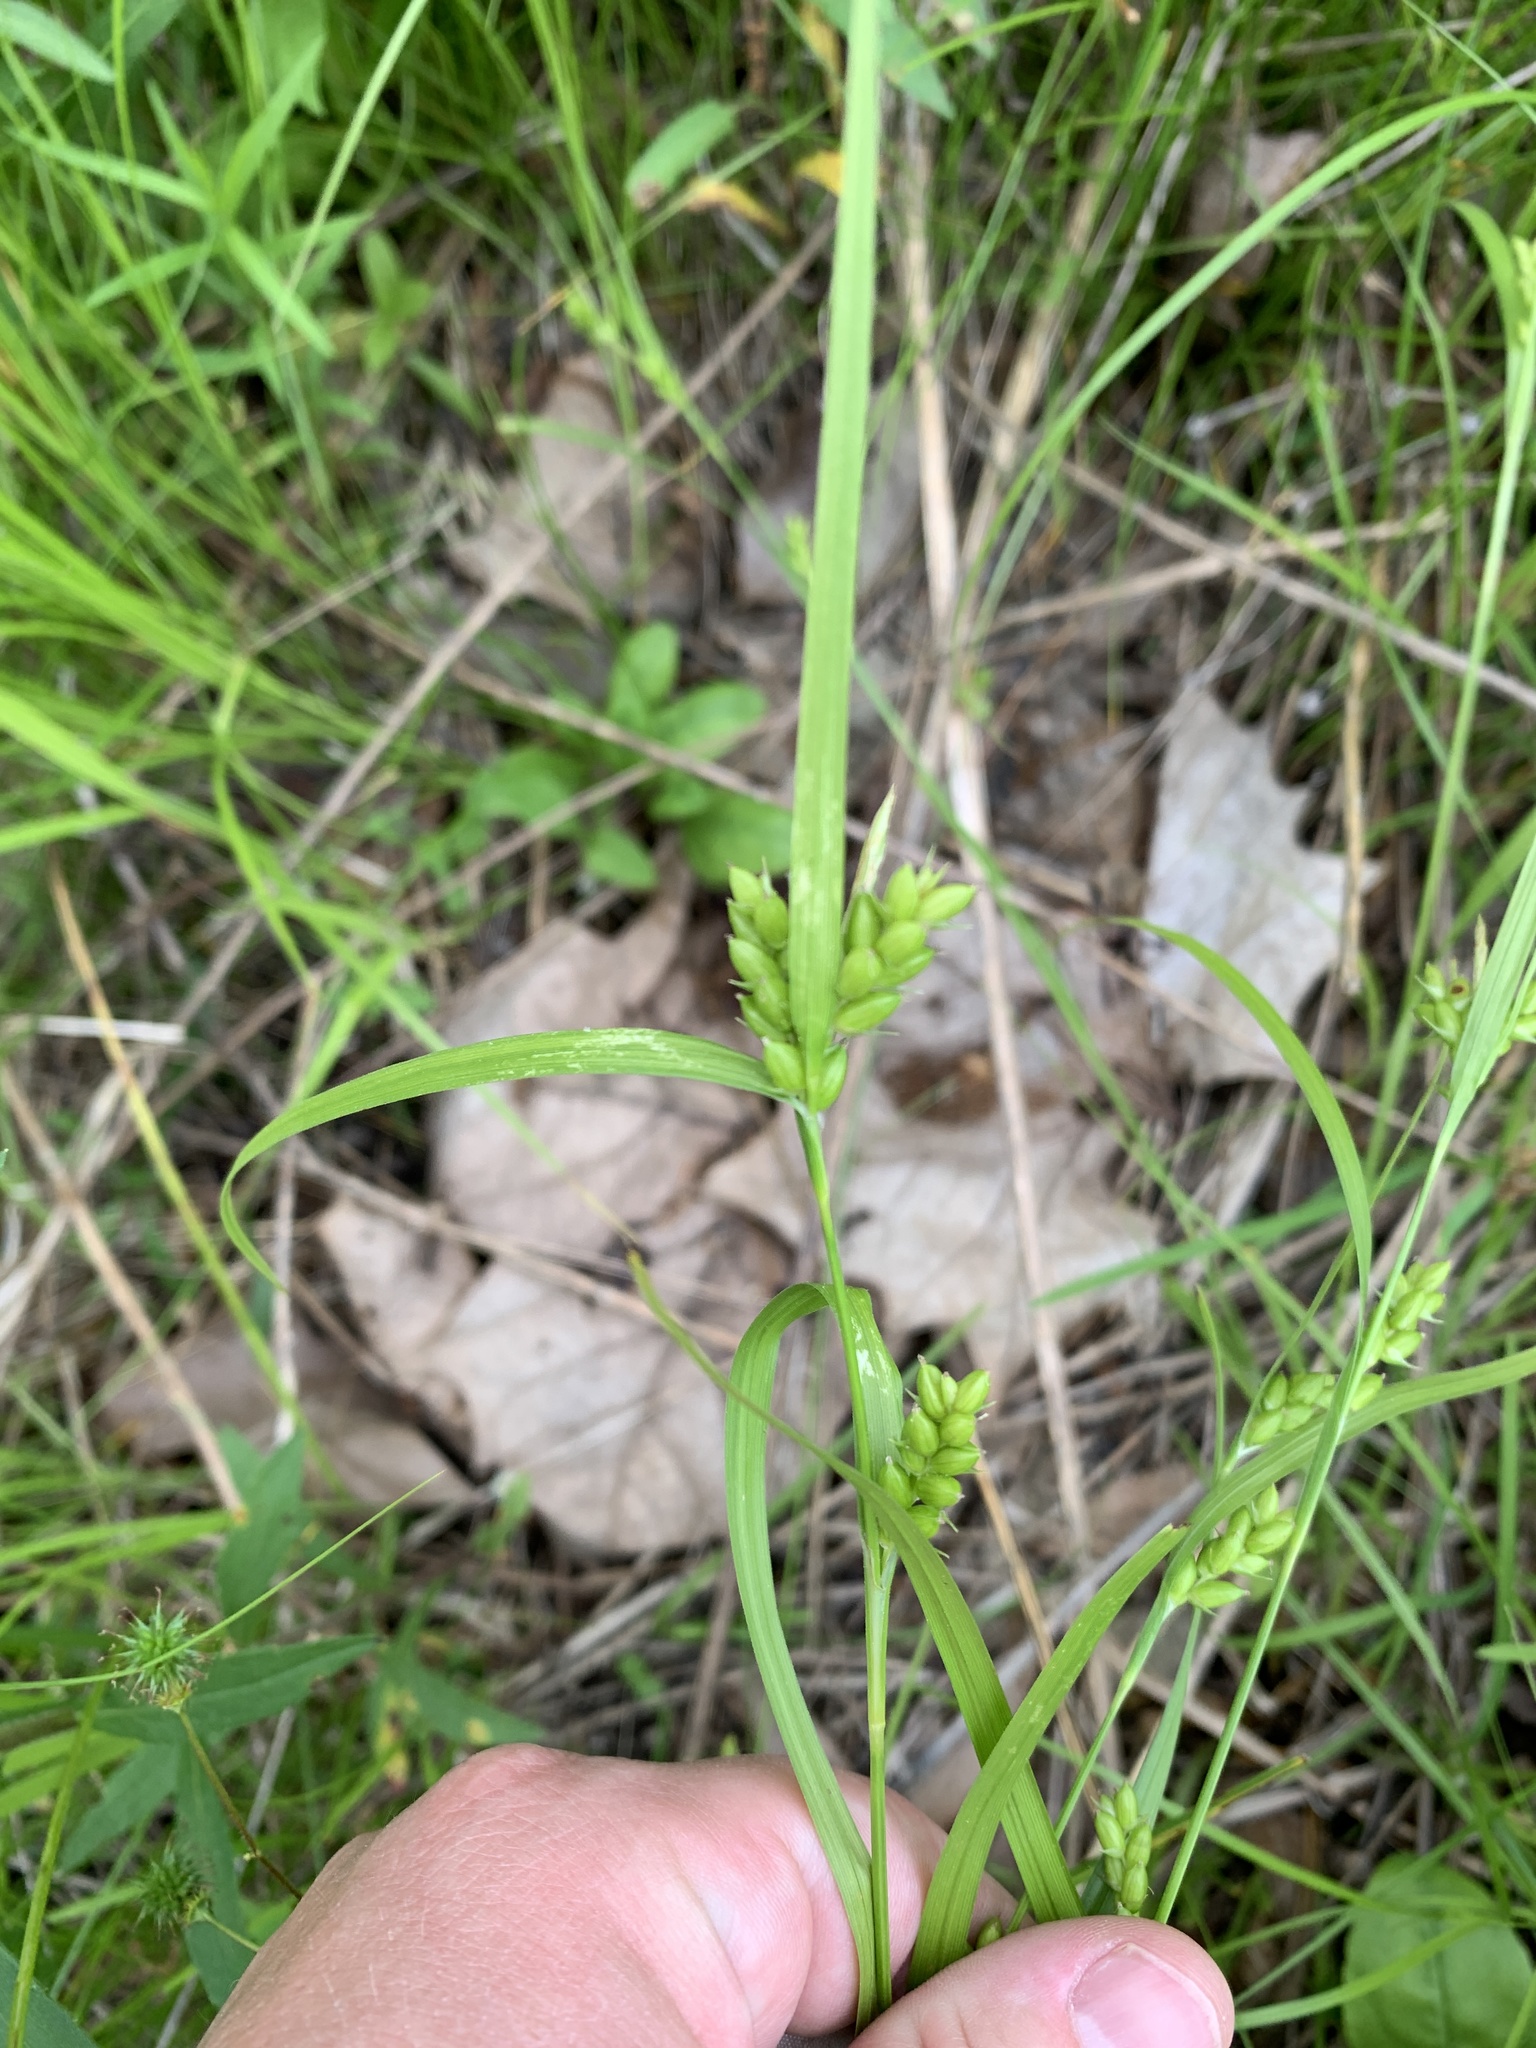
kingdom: Plantae
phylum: Tracheophyta
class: Liliopsida
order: Poales
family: Cyperaceae
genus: Carex
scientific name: Carex grisea
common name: Eastern narrow-leaved sedge
